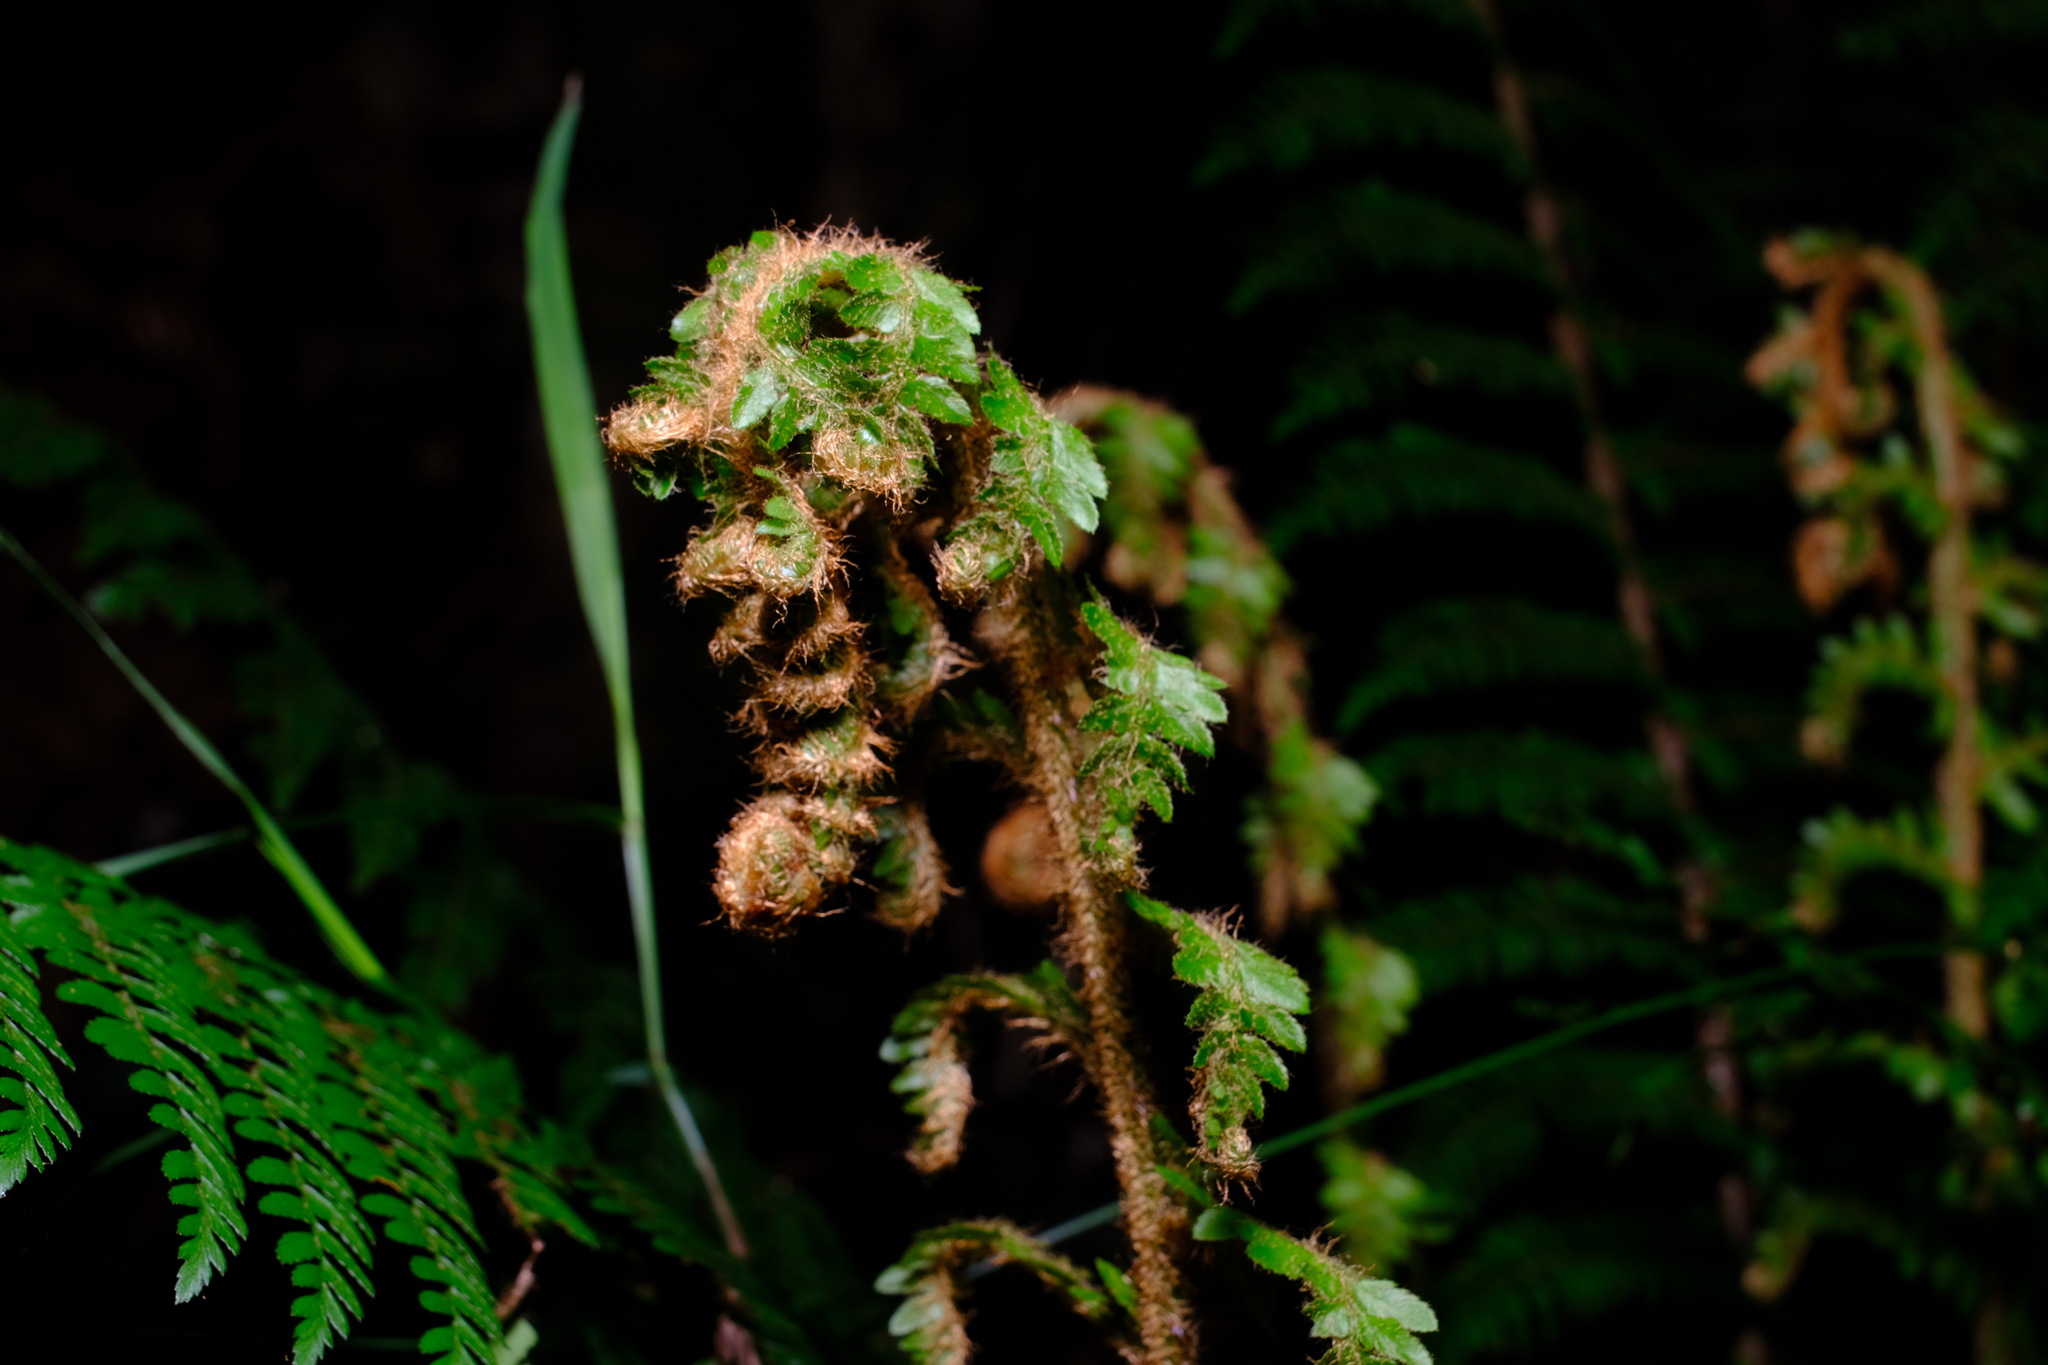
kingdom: Plantae
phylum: Tracheophyta
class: Polypodiopsida
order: Polypodiales
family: Dryopteridaceae
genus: Polystichum
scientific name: Polystichum proliferum
